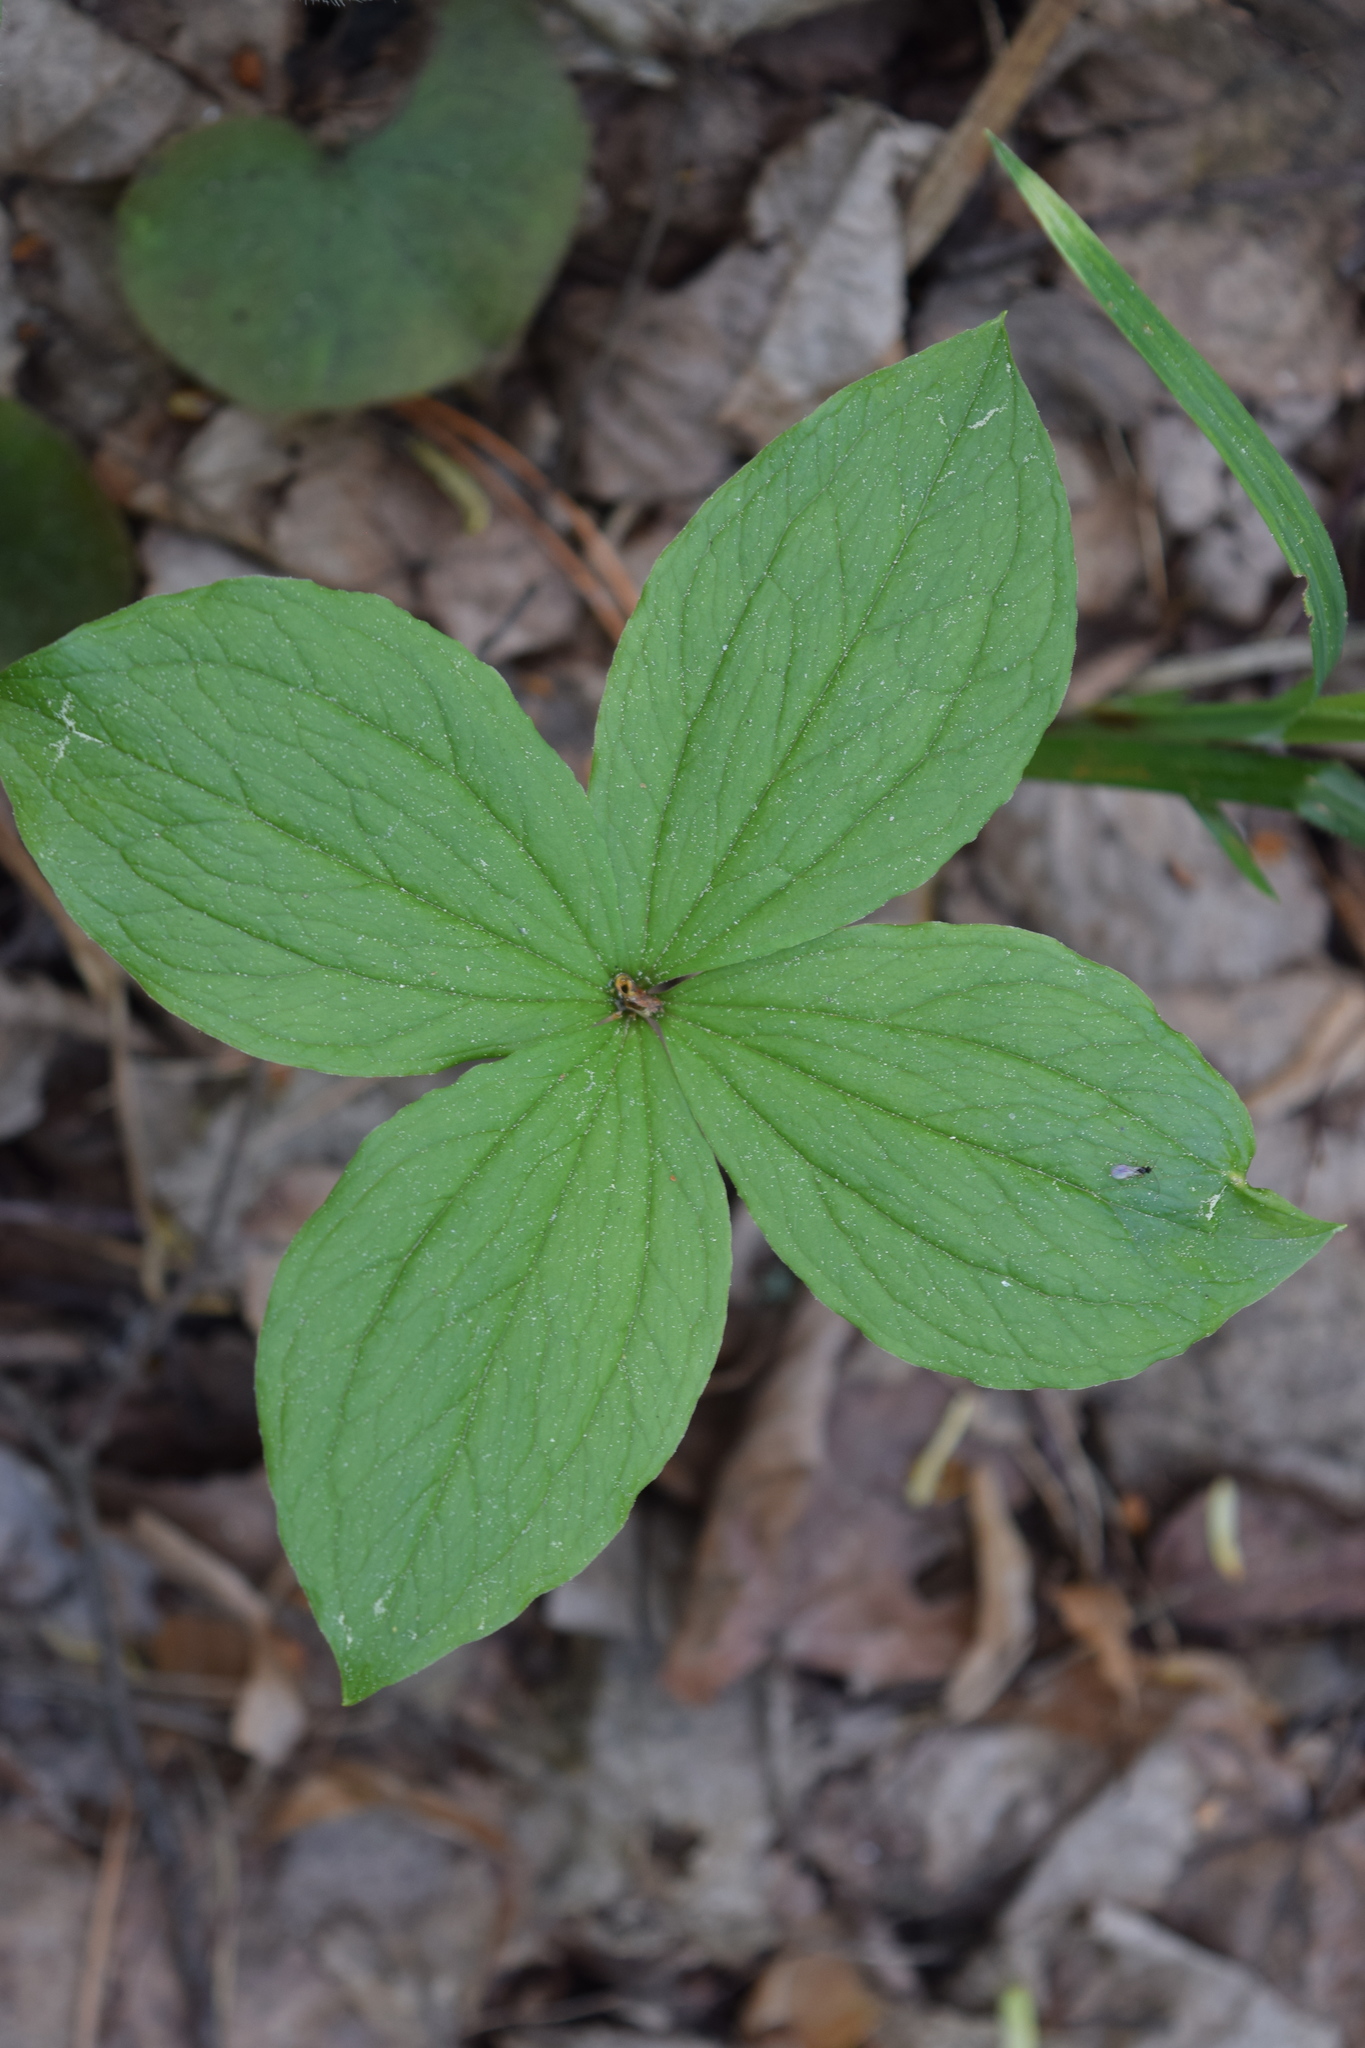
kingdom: Plantae
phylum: Tracheophyta
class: Liliopsida
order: Liliales
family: Melanthiaceae
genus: Paris
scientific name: Paris quadrifolia
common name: Herb-paris
